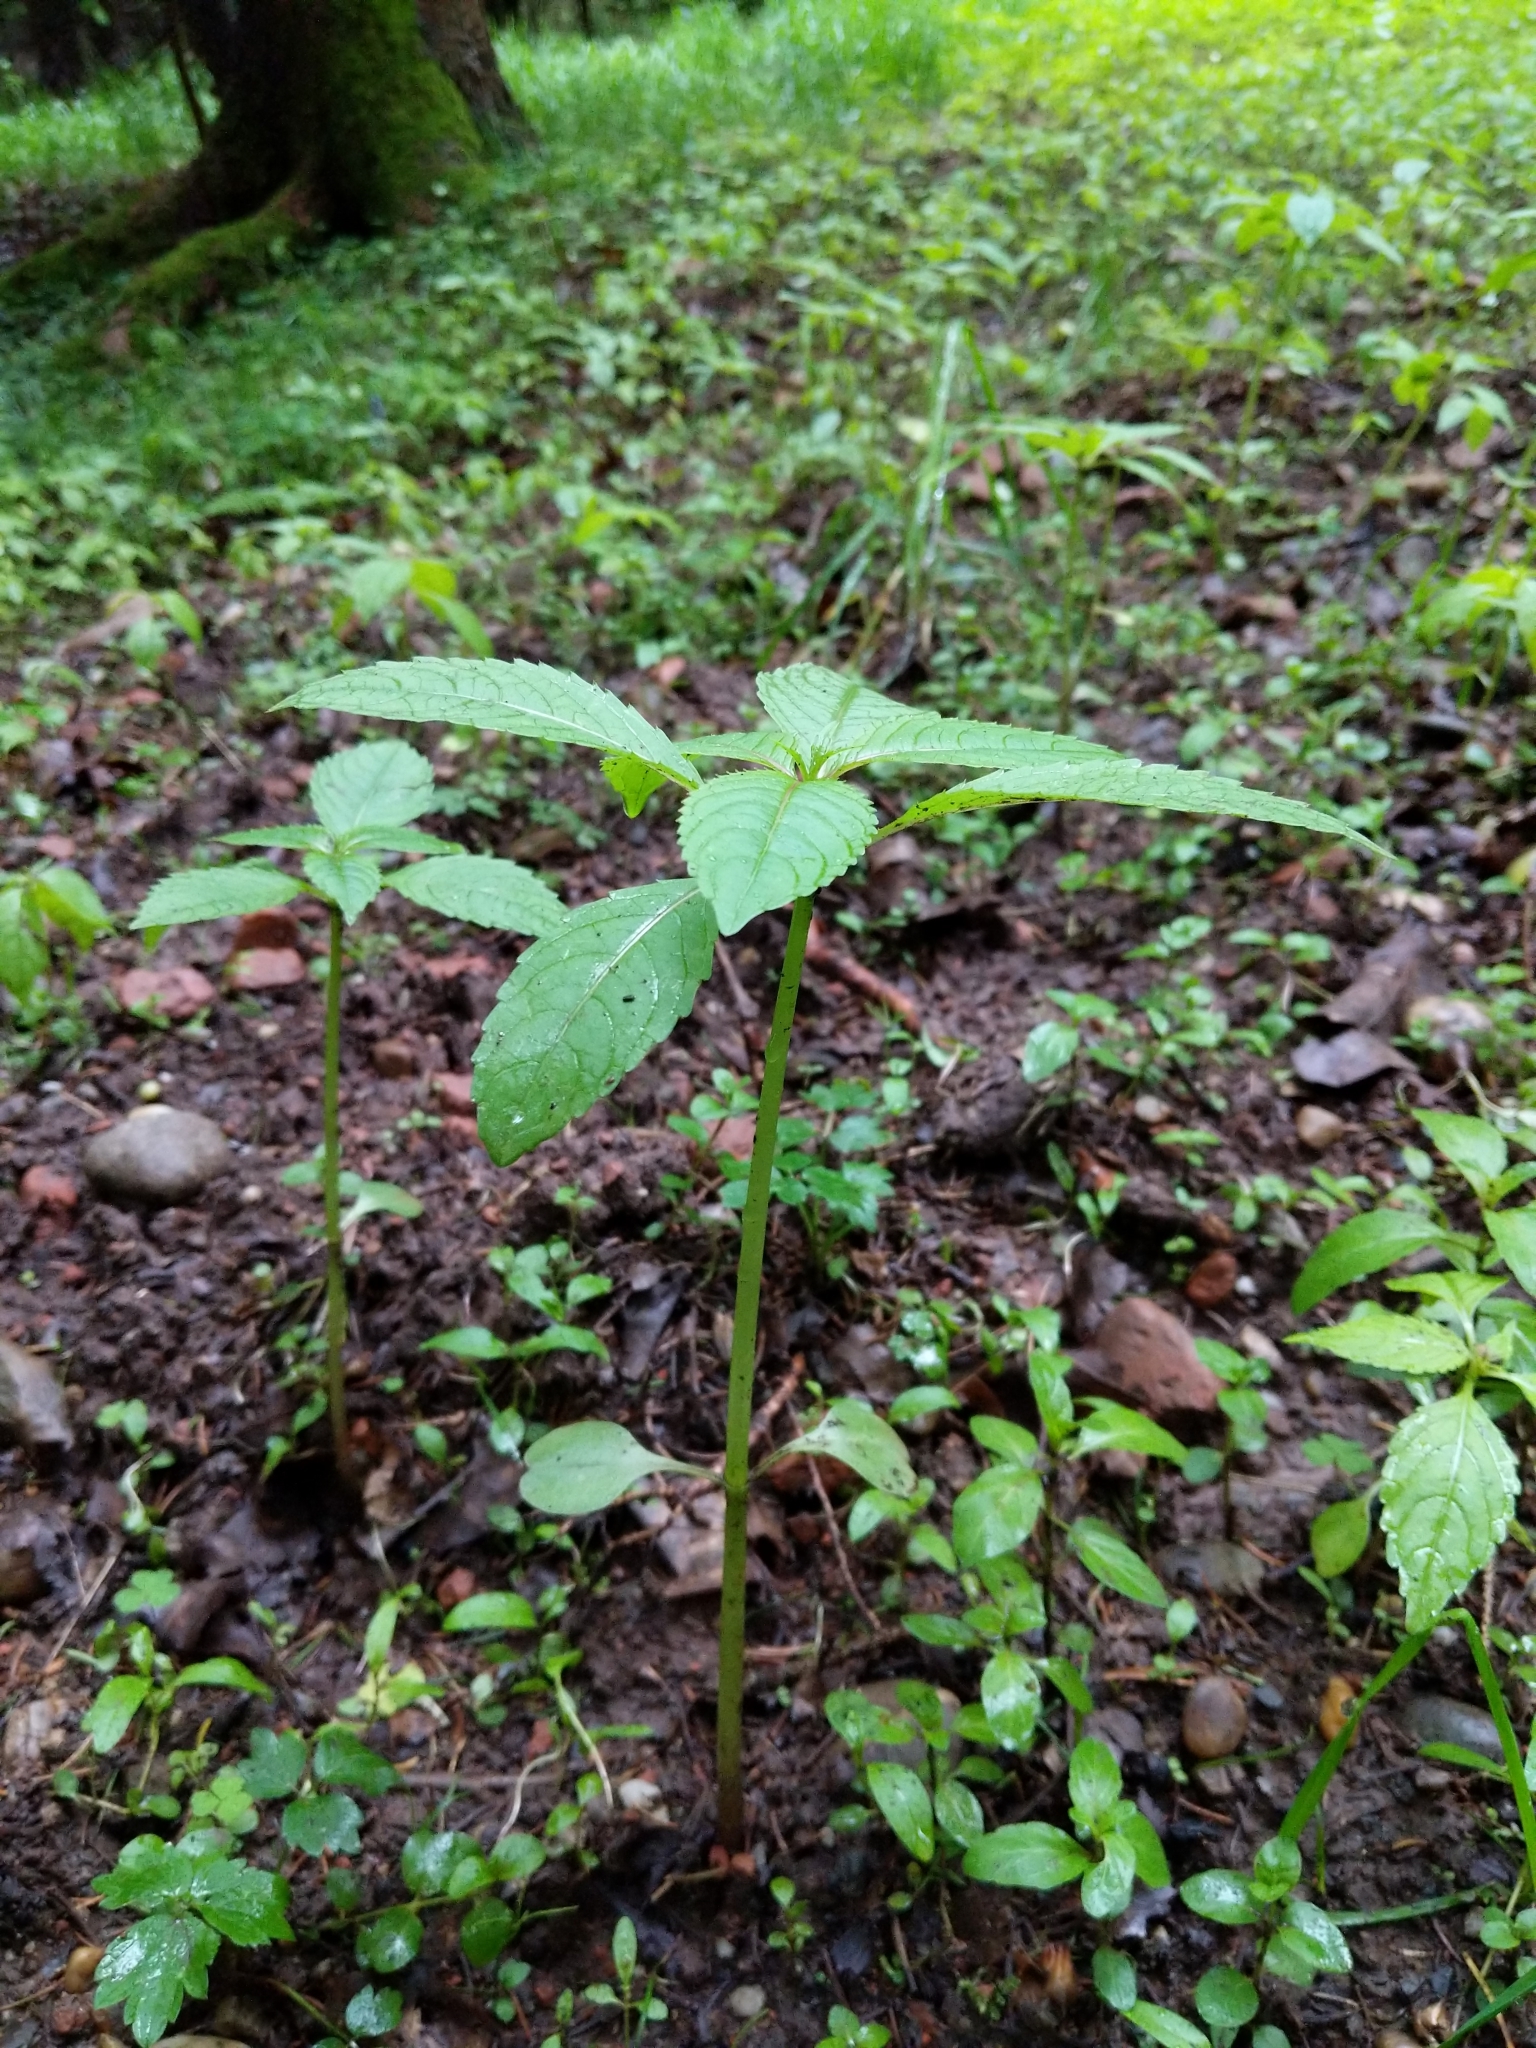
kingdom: Plantae
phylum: Tracheophyta
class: Magnoliopsida
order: Ericales
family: Balsaminaceae
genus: Impatiens
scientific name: Impatiens glandulifera
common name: Himalayan balsam
